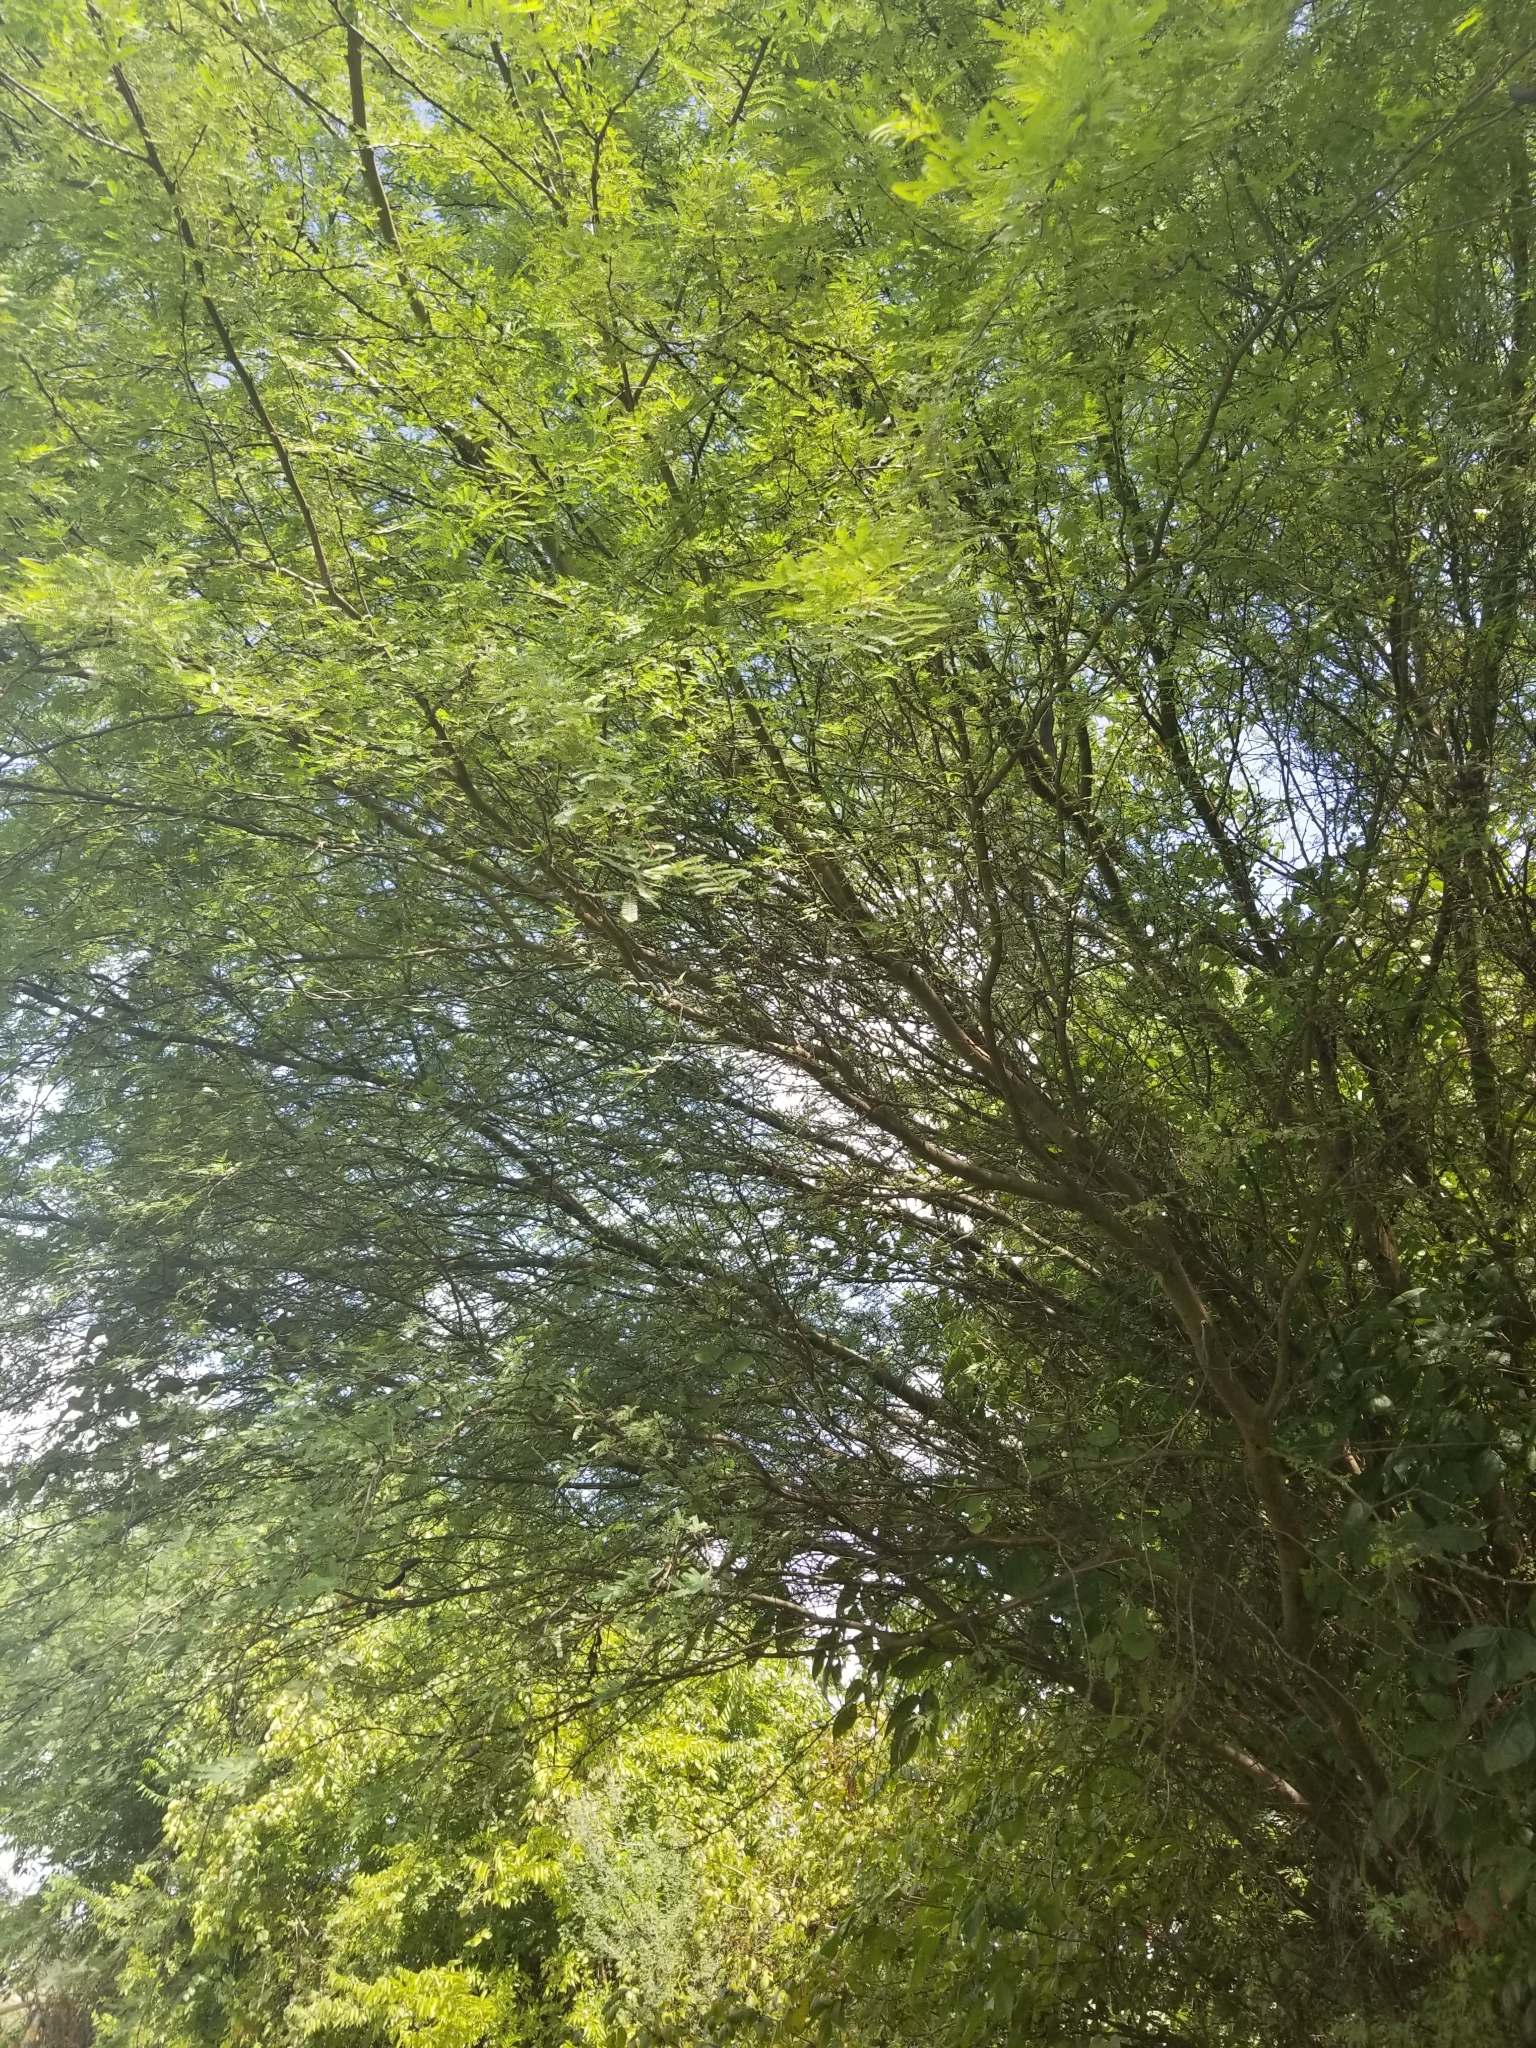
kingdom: Plantae
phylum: Tracheophyta
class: Magnoliopsida
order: Fabales
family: Fabaceae
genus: Vachellia
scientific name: Vachellia farnesiana
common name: Sweet acacia
